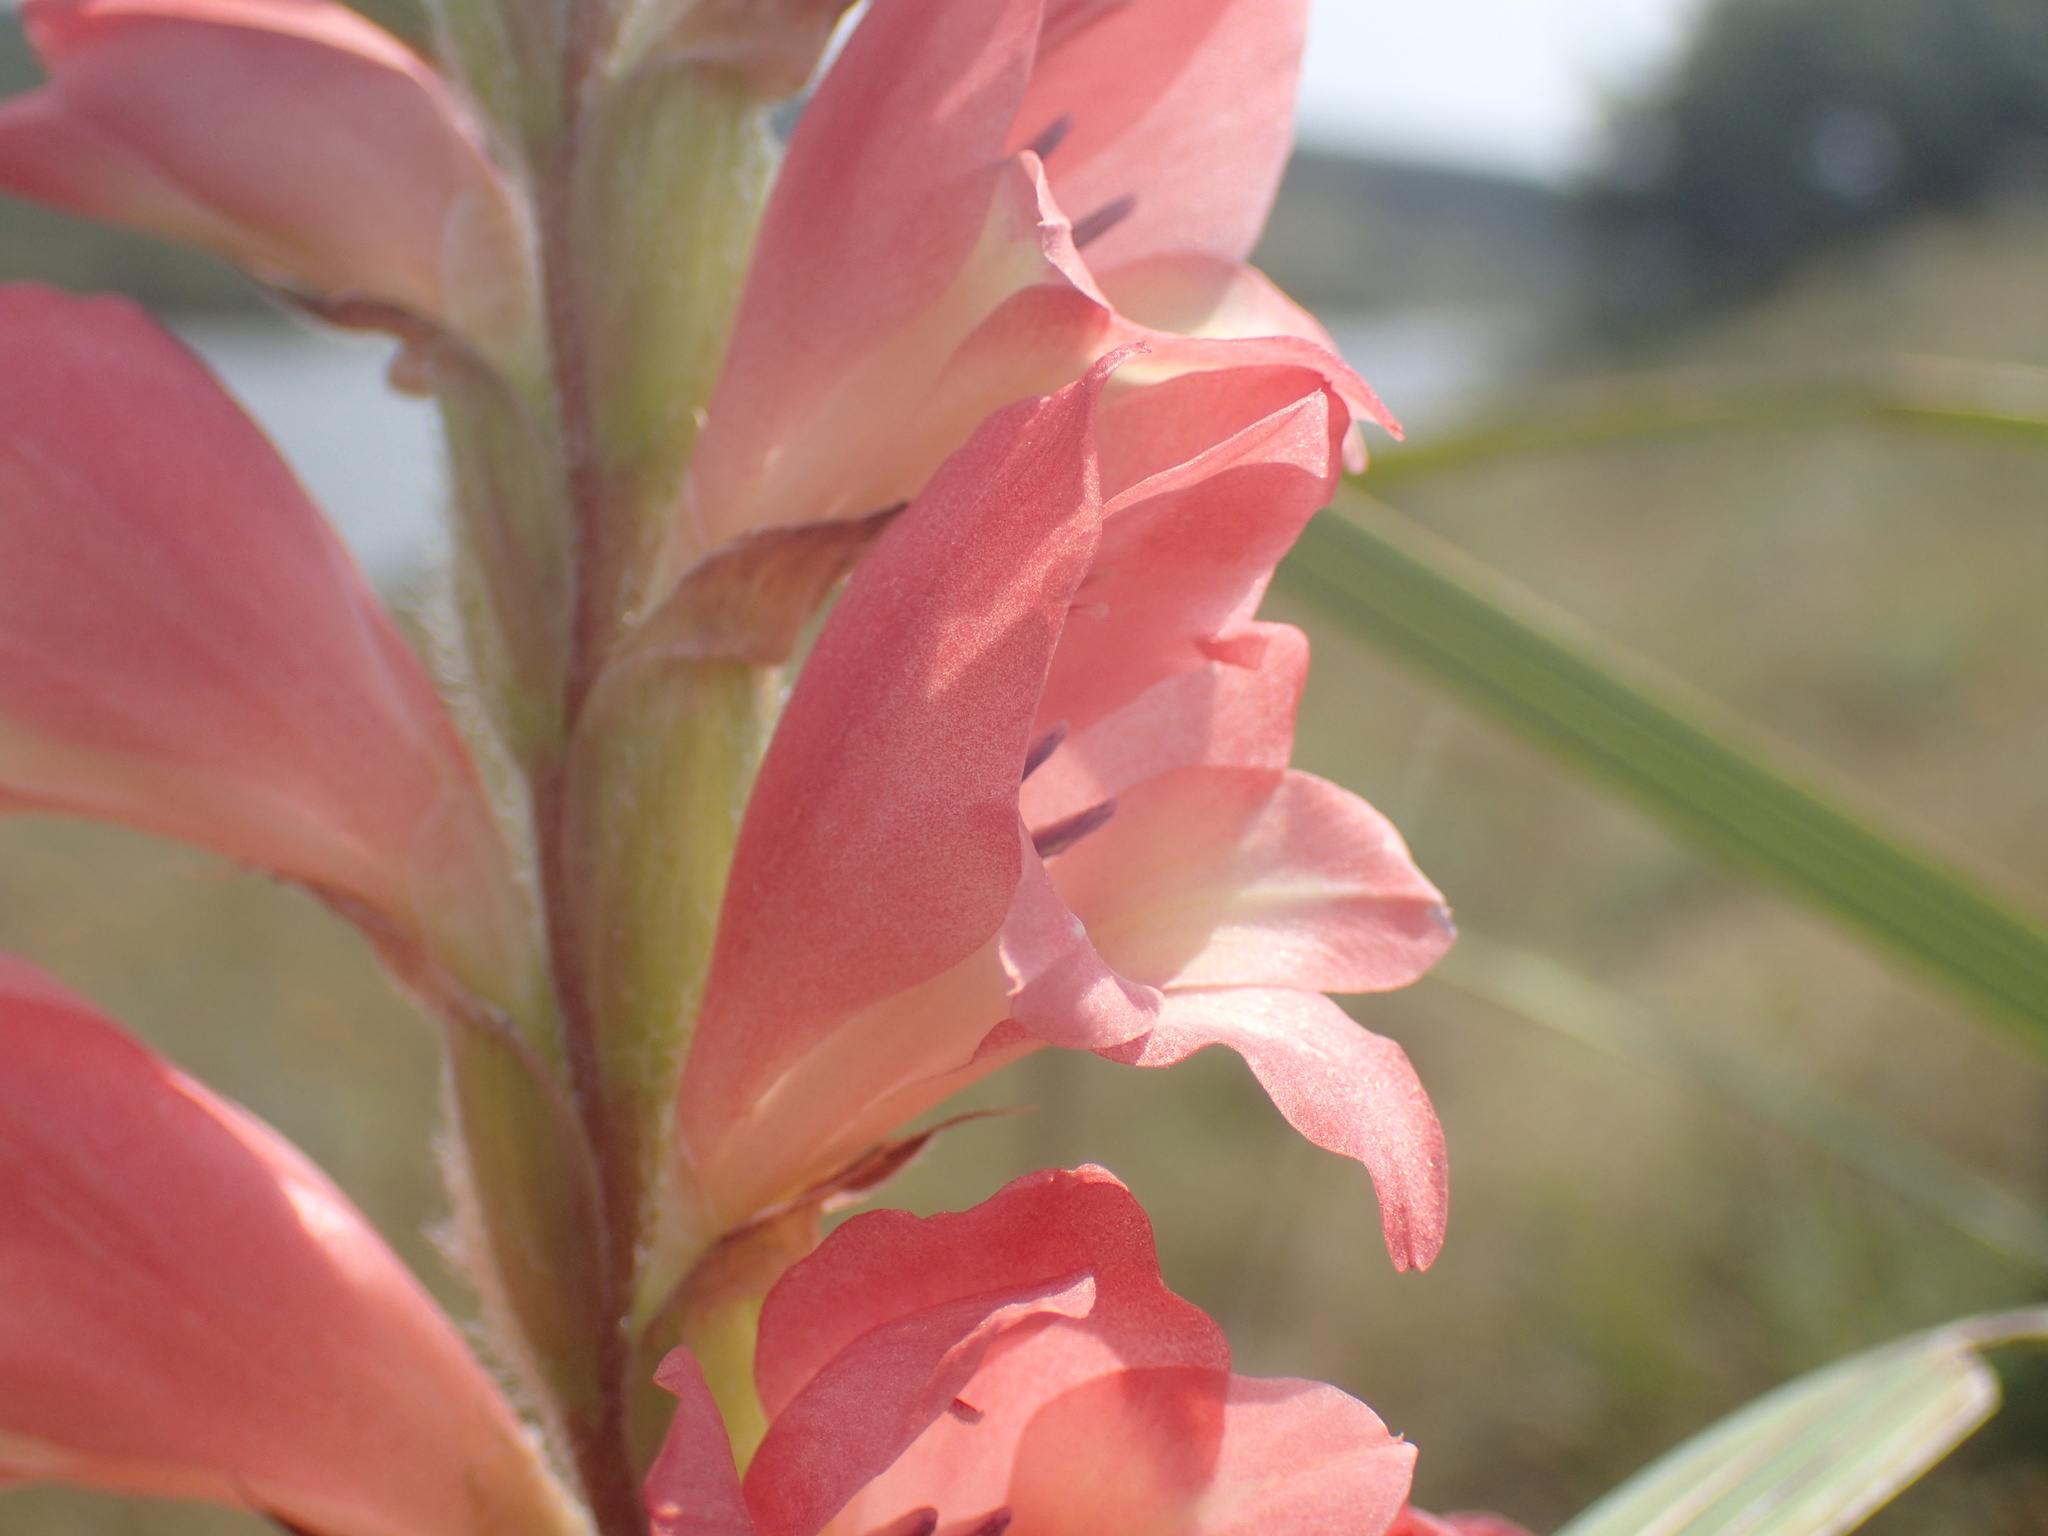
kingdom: Plantae
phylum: Tracheophyta
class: Liliopsida
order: Asparagales
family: Iridaceae
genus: Gladiolus
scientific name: Gladiolus sericeovillosus
